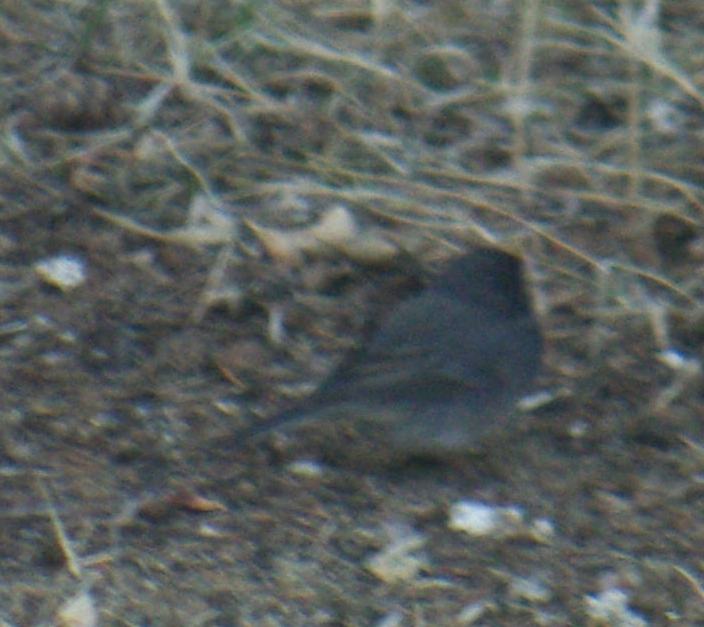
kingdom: Animalia
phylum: Chordata
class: Aves
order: Passeriformes
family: Passerellidae
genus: Junco
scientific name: Junco hyemalis
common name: Dark-eyed junco
